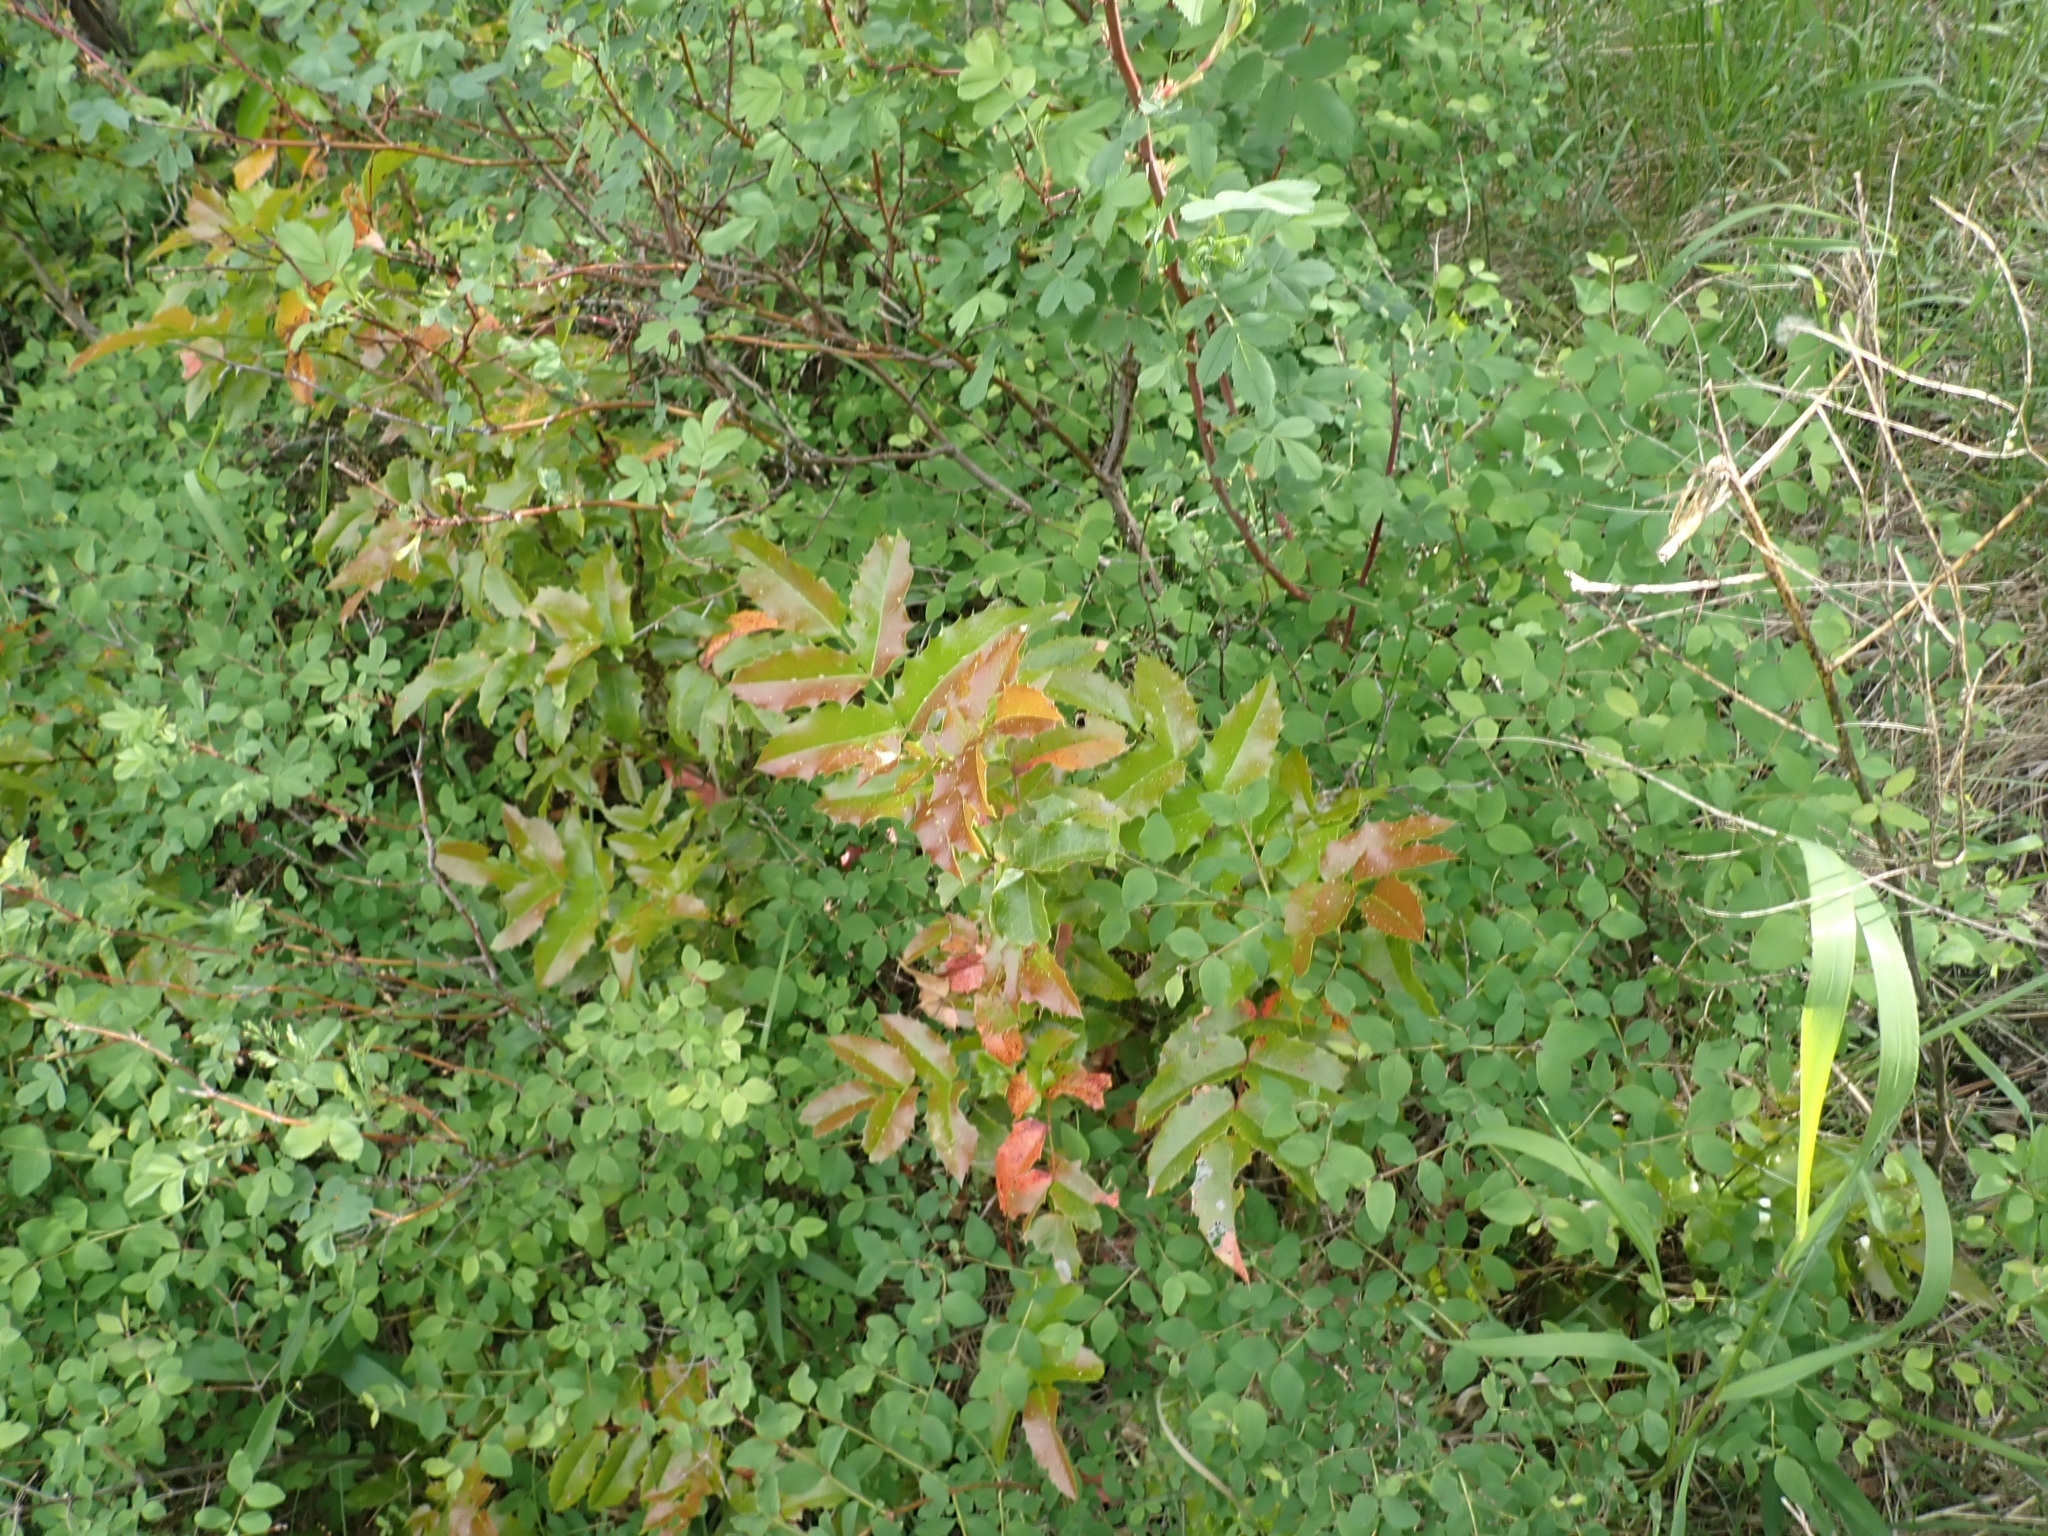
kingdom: Plantae
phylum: Tracheophyta
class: Magnoliopsida
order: Ranunculales
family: Berberidaceae
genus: Mahonia
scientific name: Mahonia aquifolium
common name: Oregon-grape
